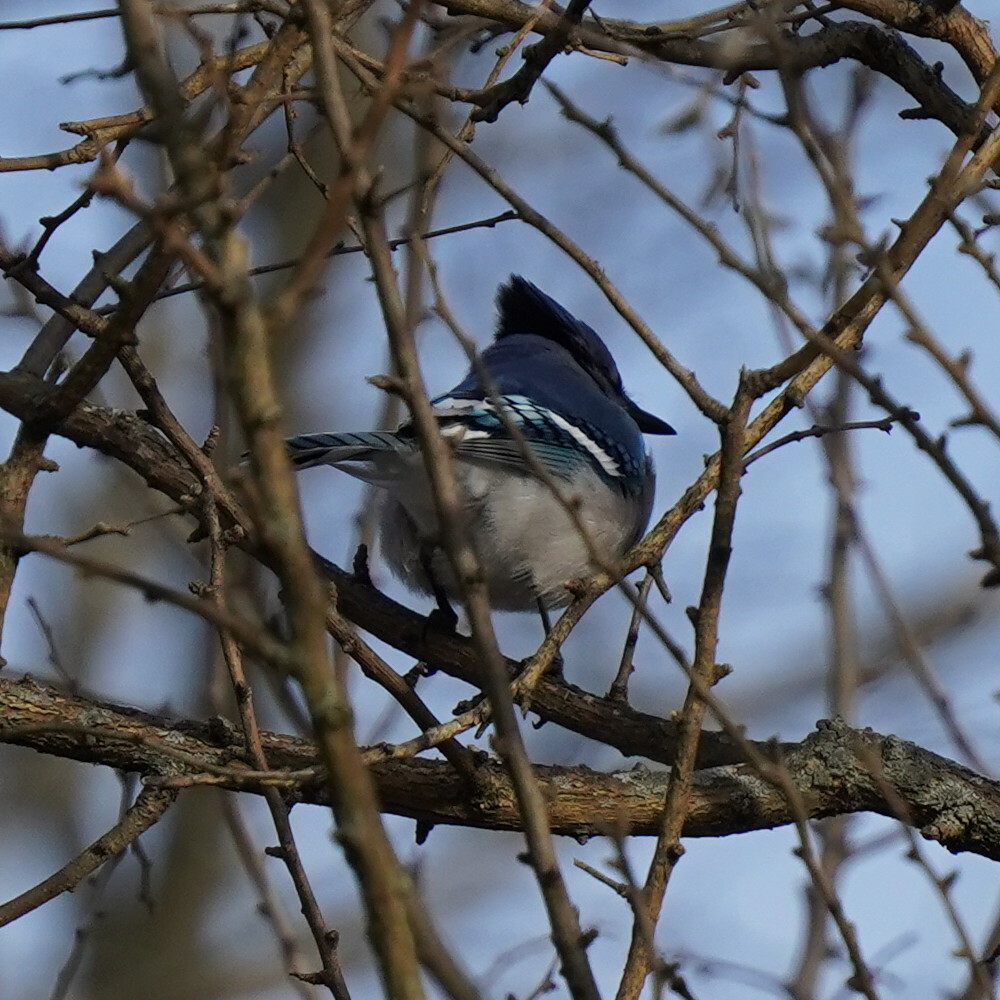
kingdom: Animalia
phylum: Chordata
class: Aves
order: Passeriformes
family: Corvidae
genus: Cyanocitta
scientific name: Cyanocitta cristata
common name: Blue jay
